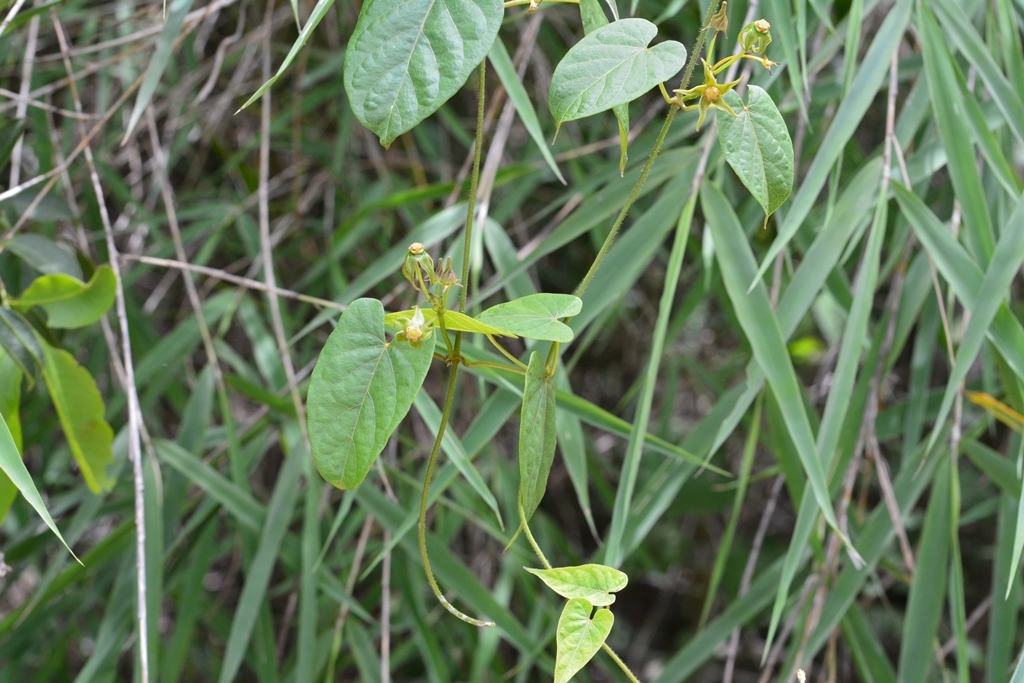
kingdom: Plantae
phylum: Tracheophyta
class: Magnoliopsida
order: Gentianales
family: Apocynaceae
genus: Gonolobus
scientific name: Gonolobus breedlovei
